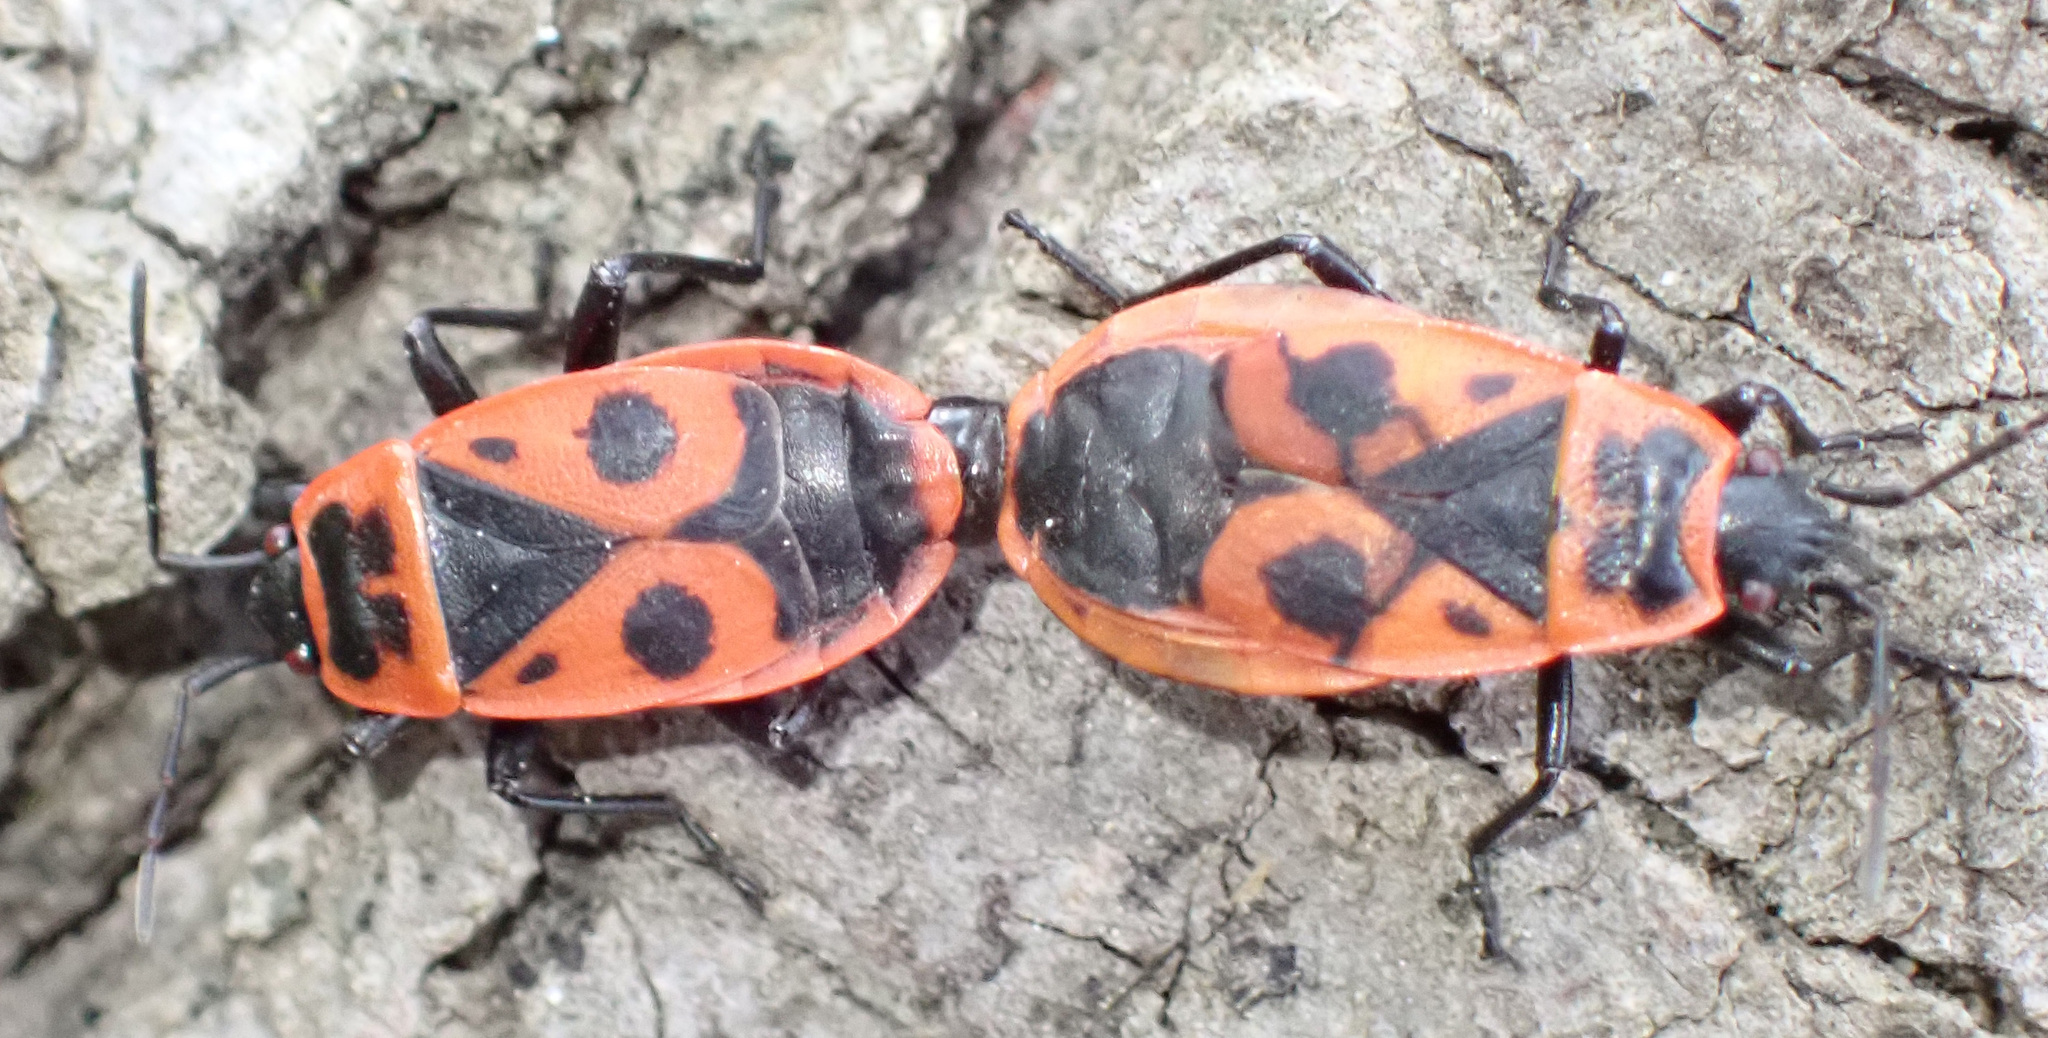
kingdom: Animalia
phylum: Arthropoda
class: Insecta
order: Hemiptera
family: Pyrrhocoridae
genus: Pyrrhocoris
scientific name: Pyrrhocoris apterus
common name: Firebug
